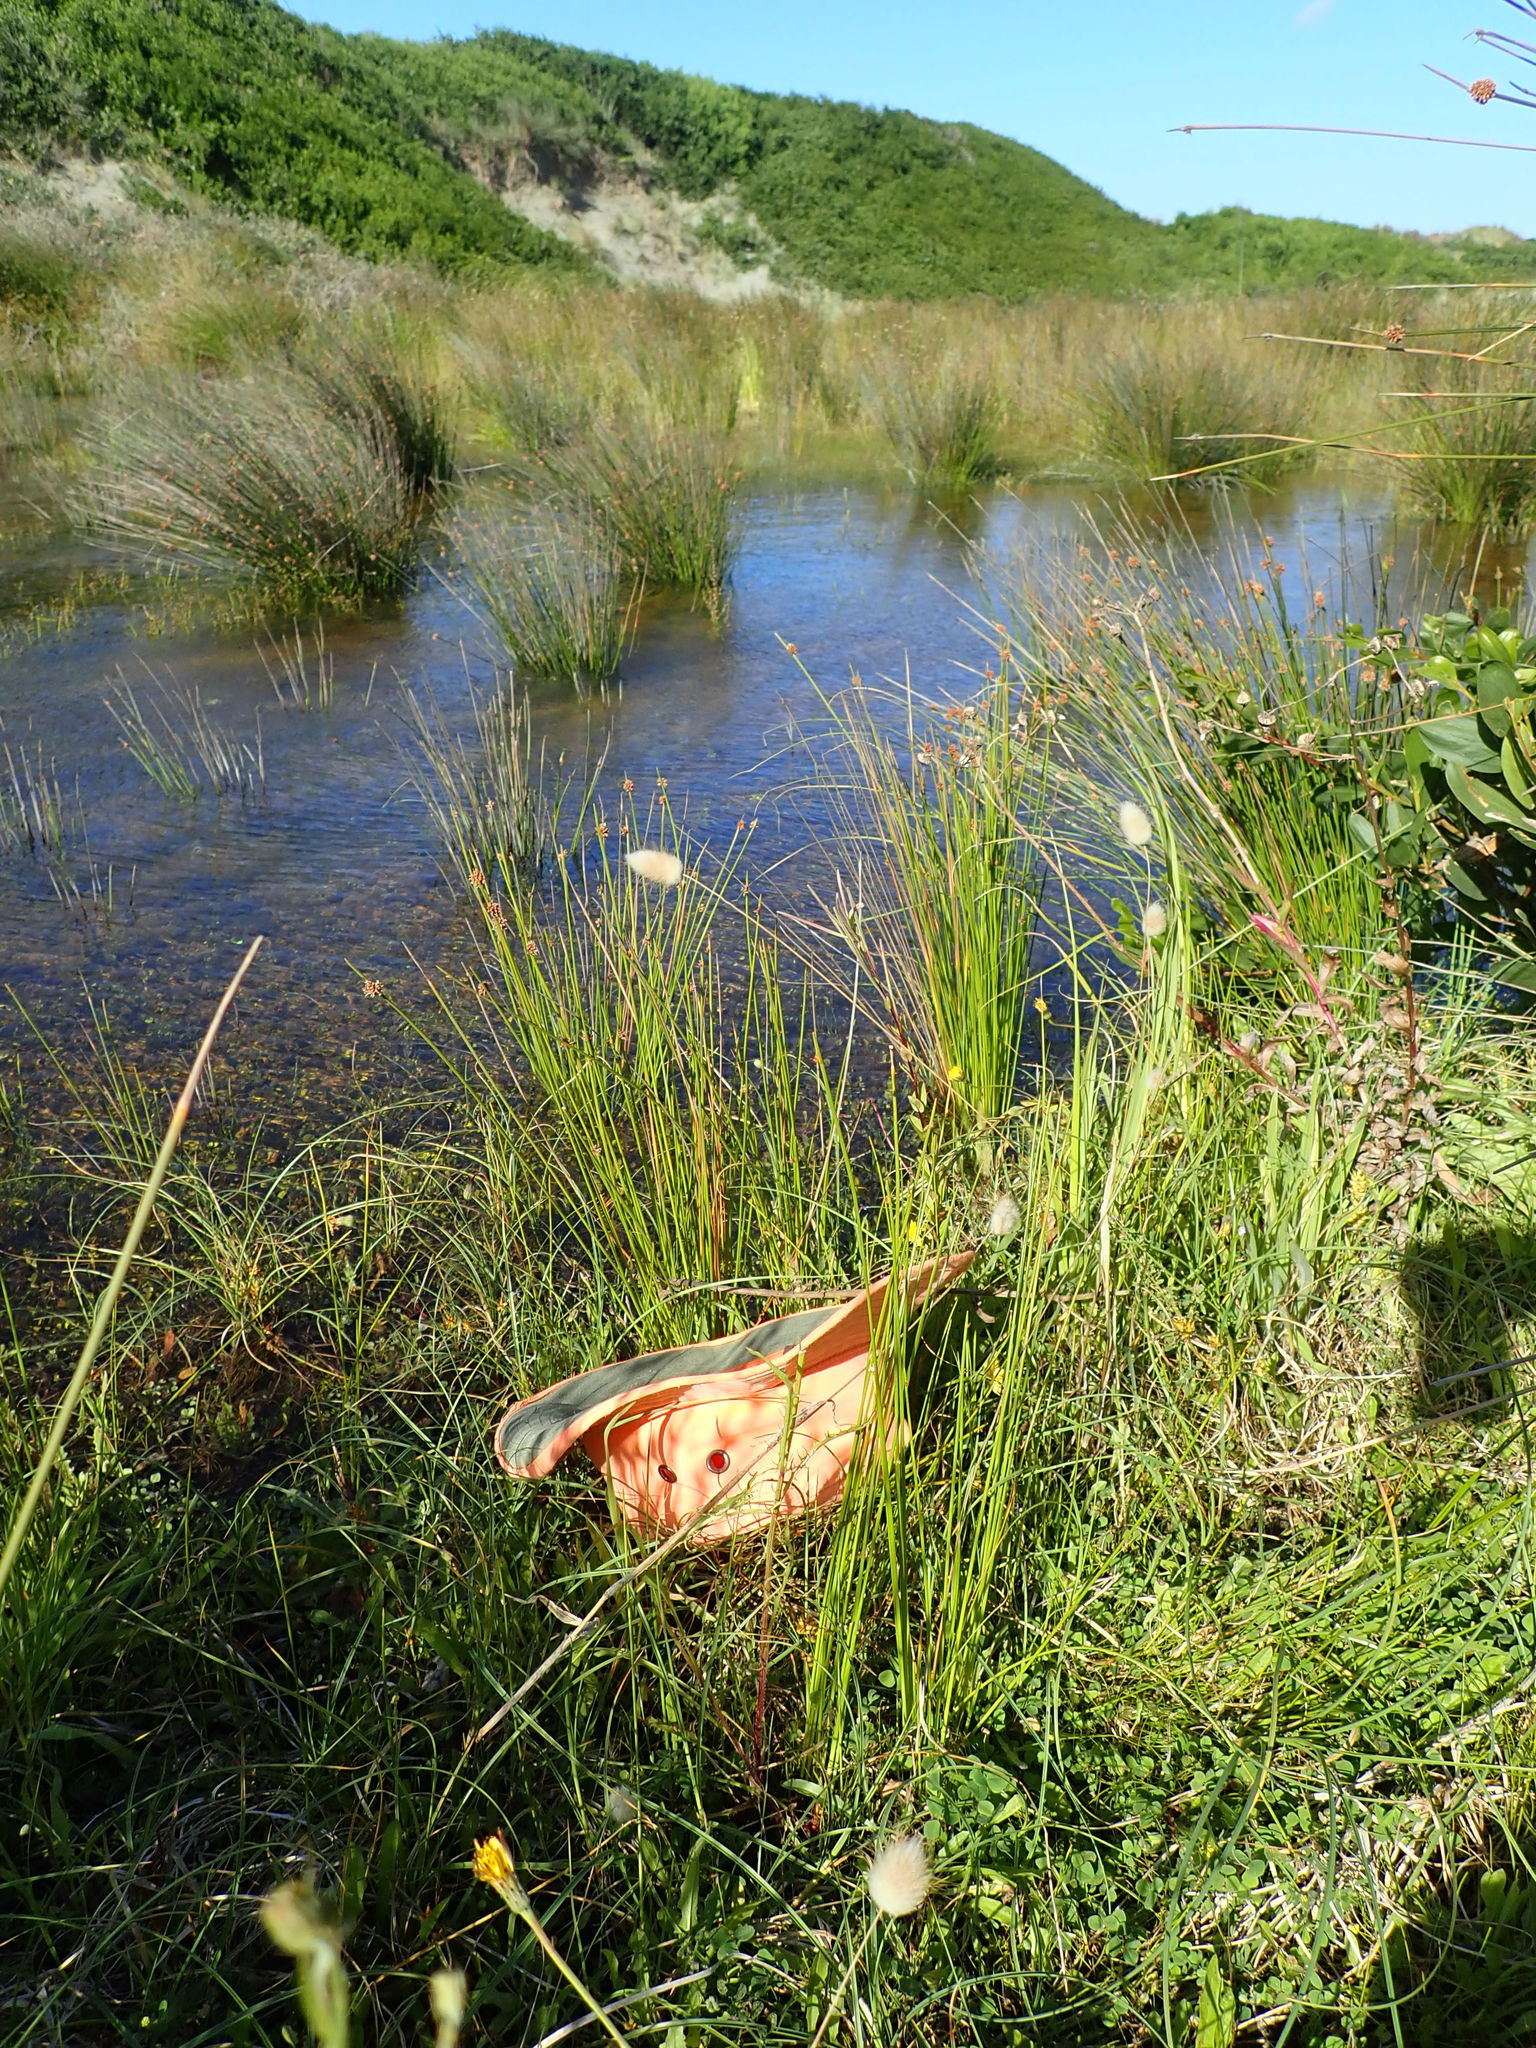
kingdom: Plantae
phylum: Tracheophyta
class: Magnoliopsida
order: Myrtales
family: Onagraceae
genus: Epilobium
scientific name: Epilobium billardiereanum
